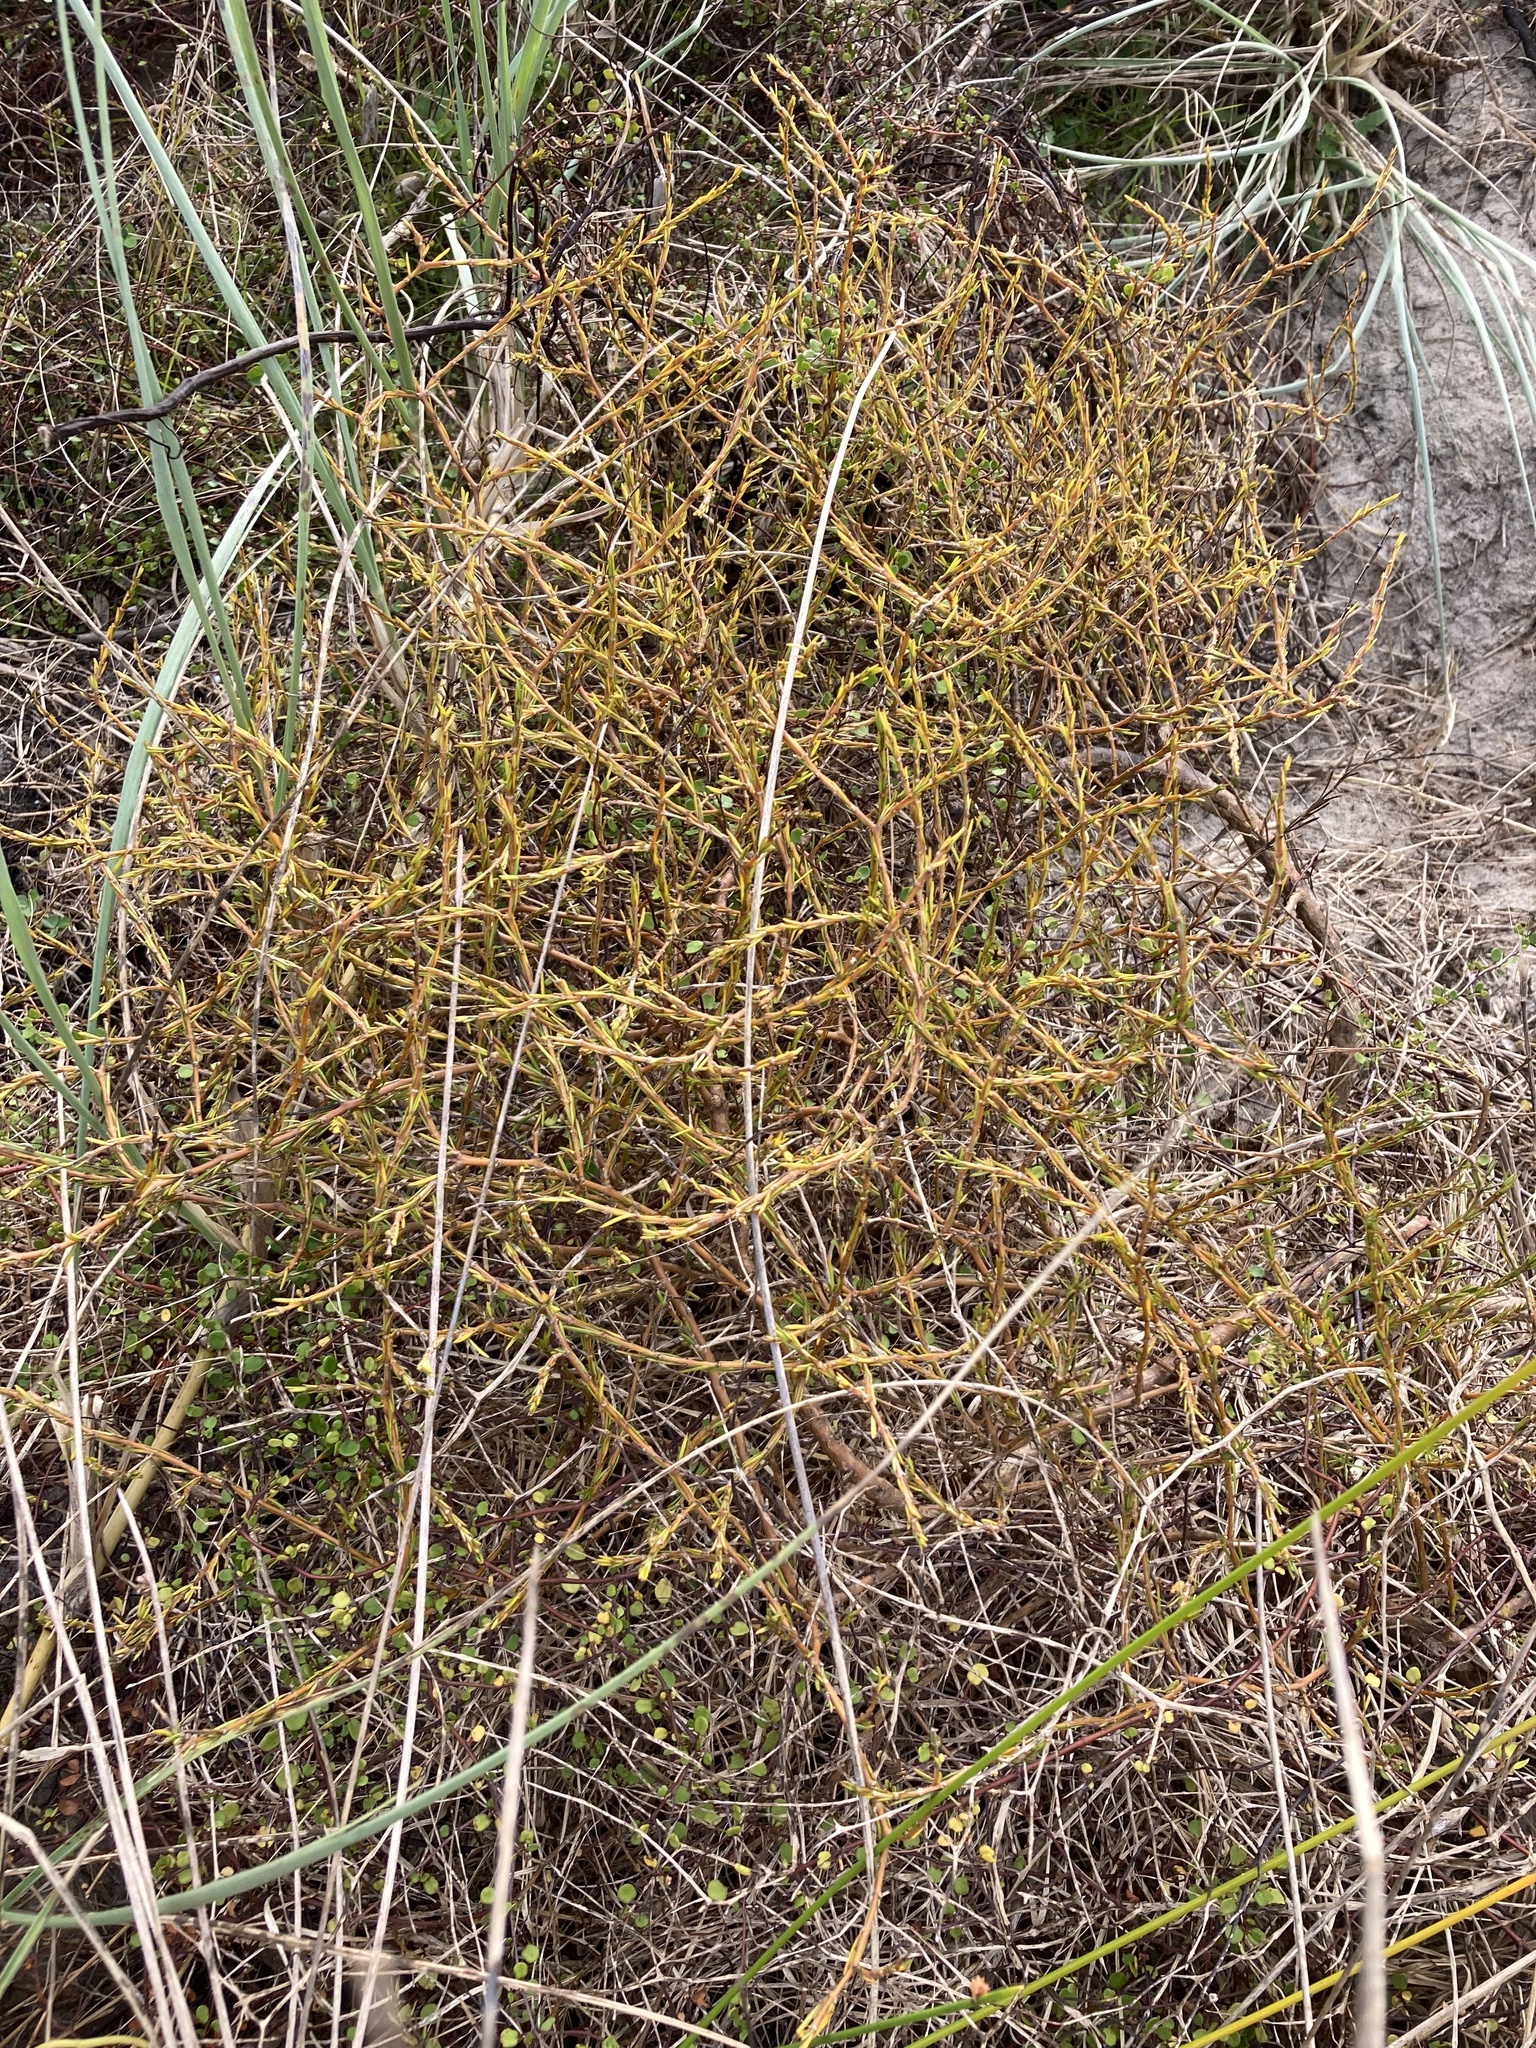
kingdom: Plantae
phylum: Tracheophyta
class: Magnoliopsida
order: Gentianales
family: Rubiaceae
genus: Coprosma
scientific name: Coprosma acerosa
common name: Sand coprosma
